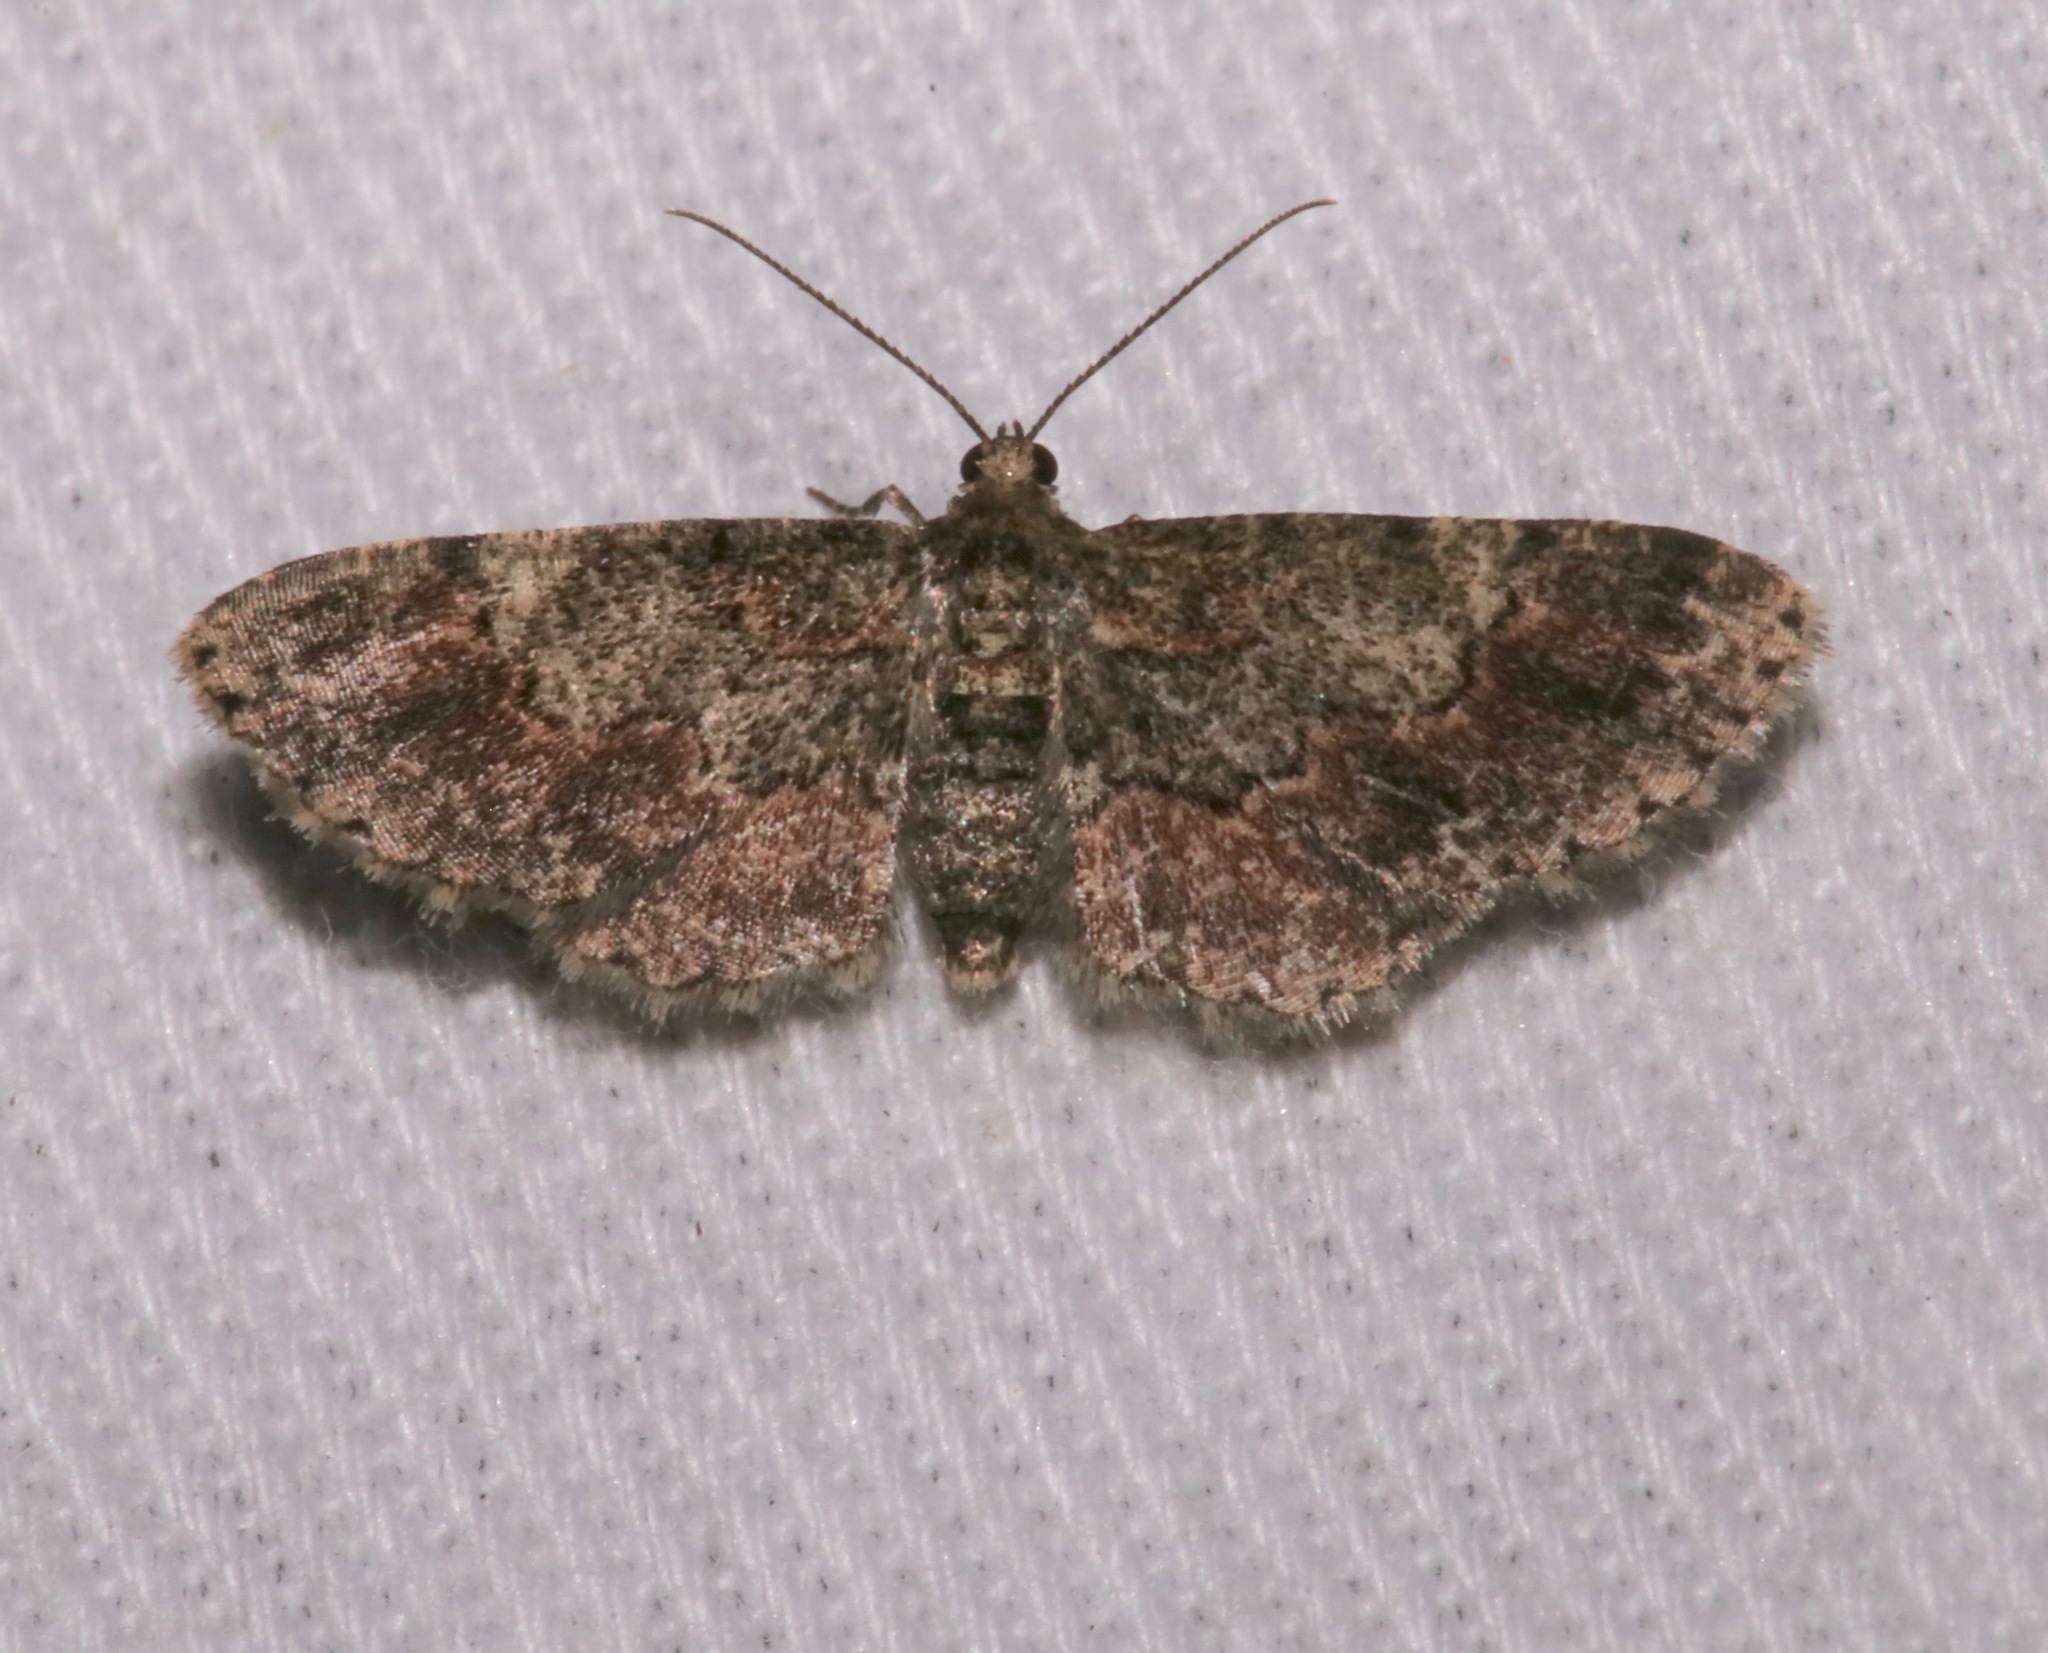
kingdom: Animalia
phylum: Arthropoda
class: Insecta
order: Lepidoptera
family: Geometridae
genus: Glenoides
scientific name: Glenoides texanaria
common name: Texas gray
